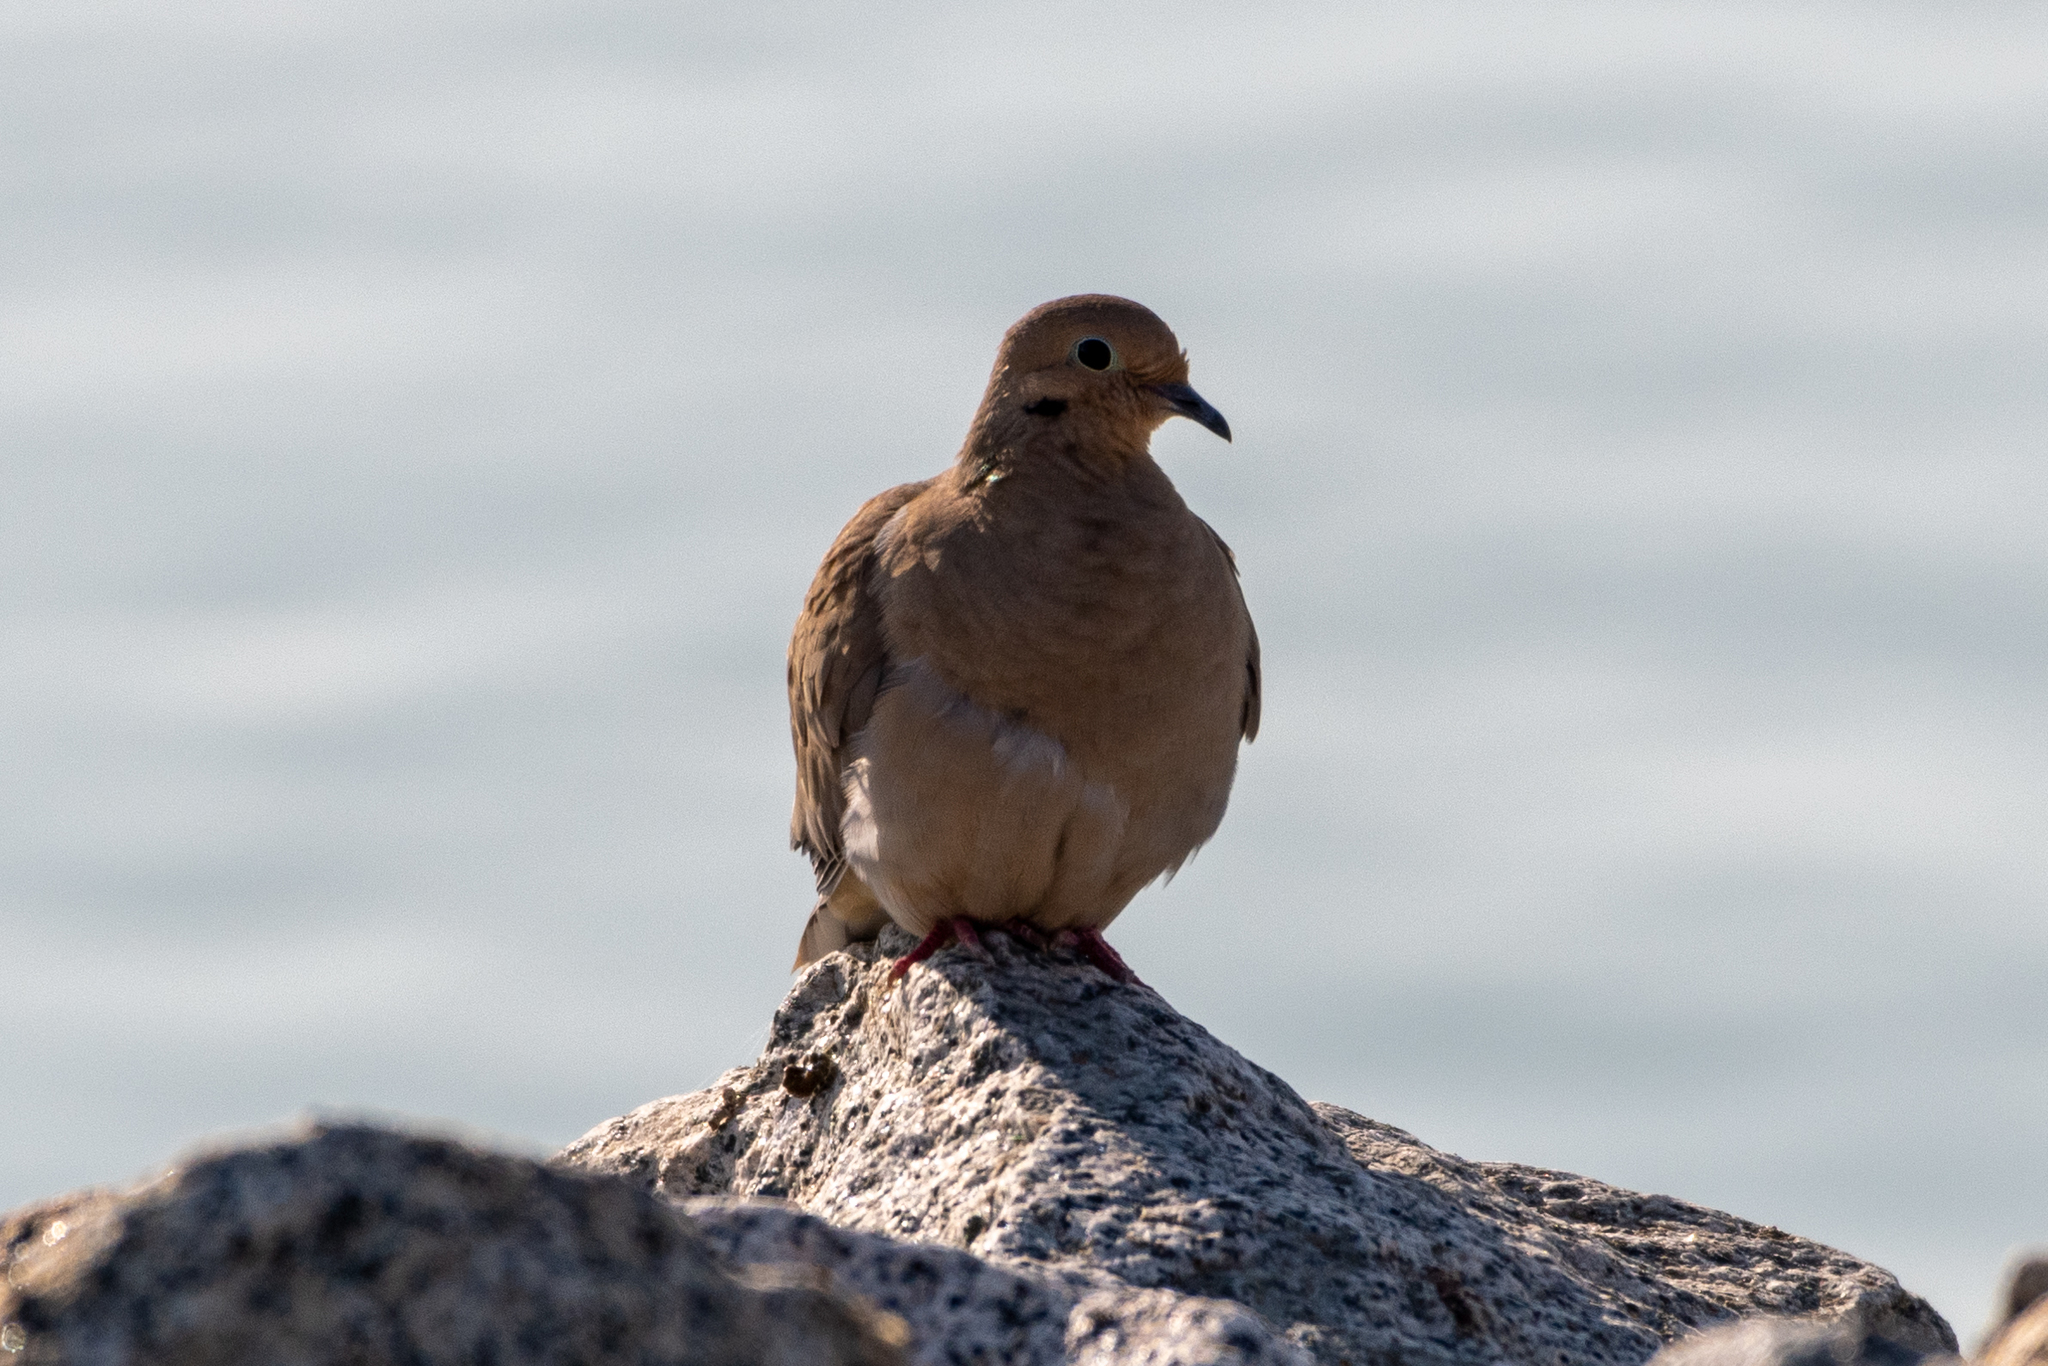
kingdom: Animalia
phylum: Chordata
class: Aves
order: Columbiformes
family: Columbidae
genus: Zenaida
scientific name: Zenaida macroura
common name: Mourning dove
